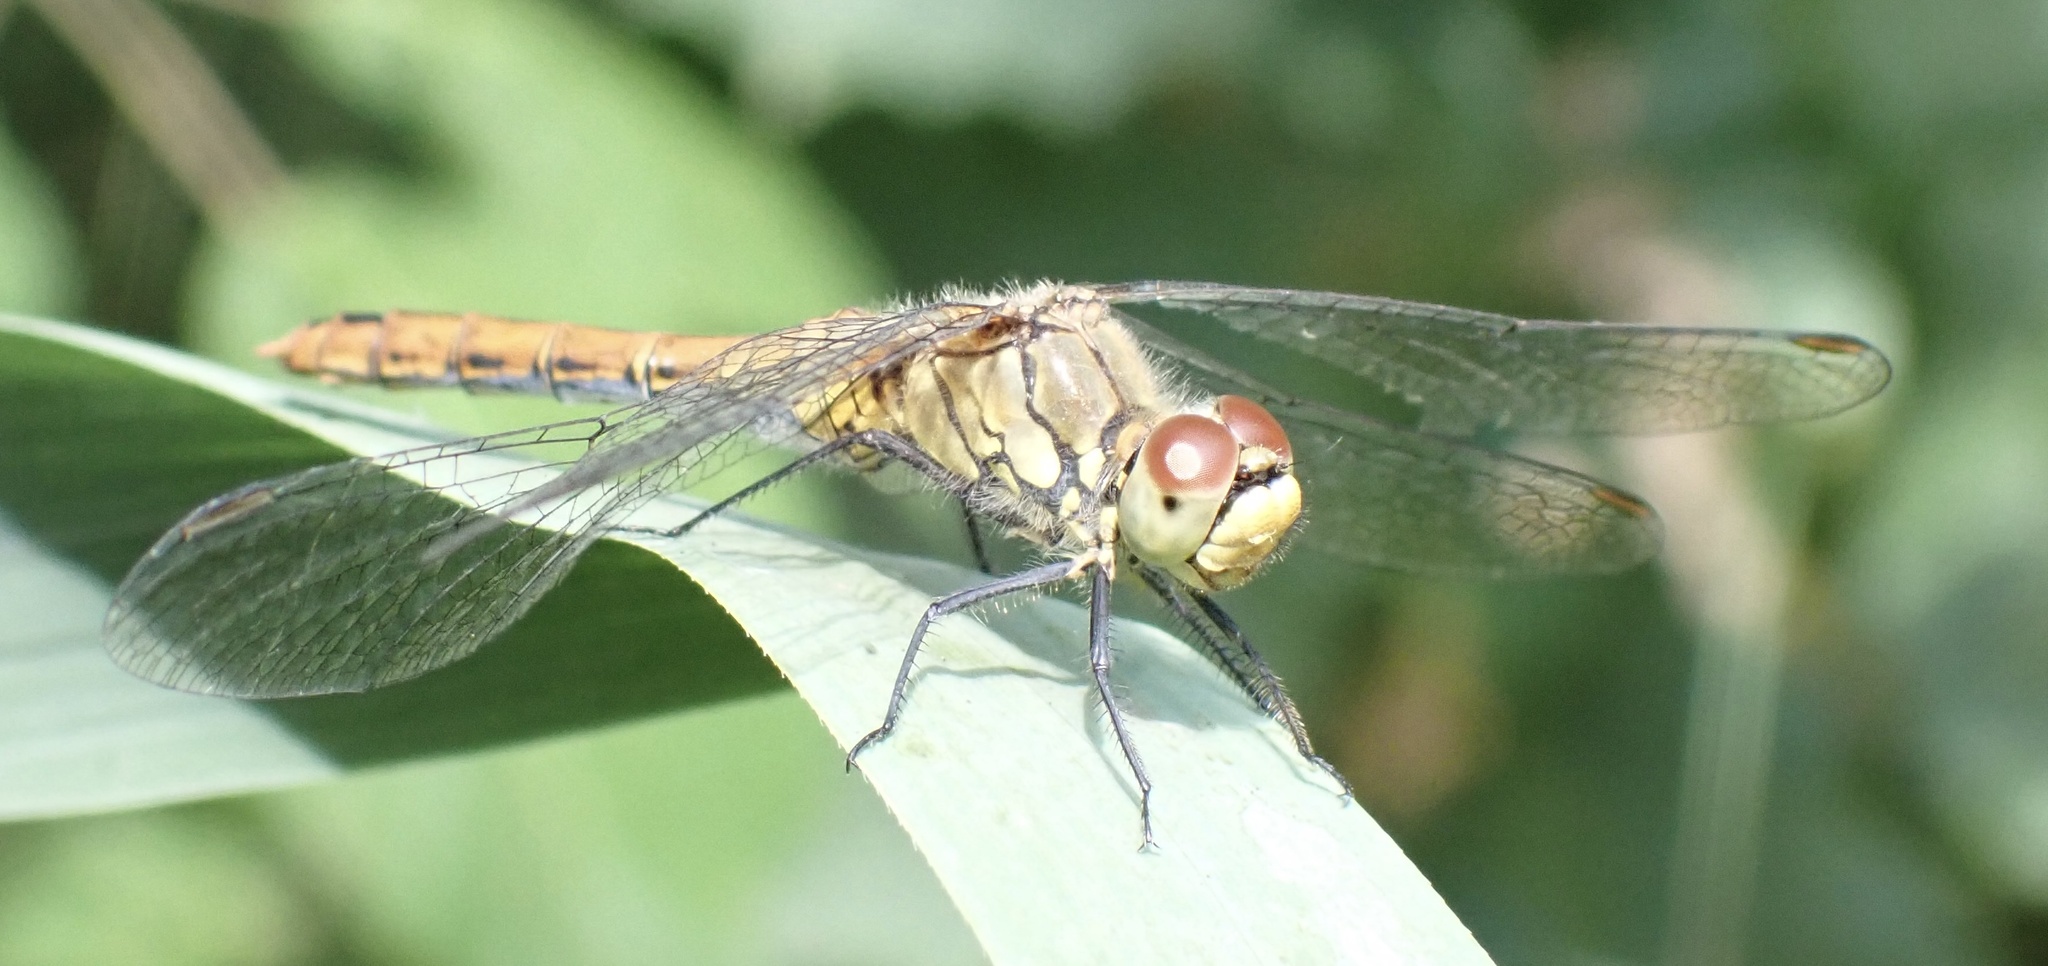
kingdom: Animalia
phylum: Arthropoda
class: Insecta
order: Odonata
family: Libellulidae
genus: Sympetrum
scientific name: Sympetrum sanguineum
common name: Ruddy darter
